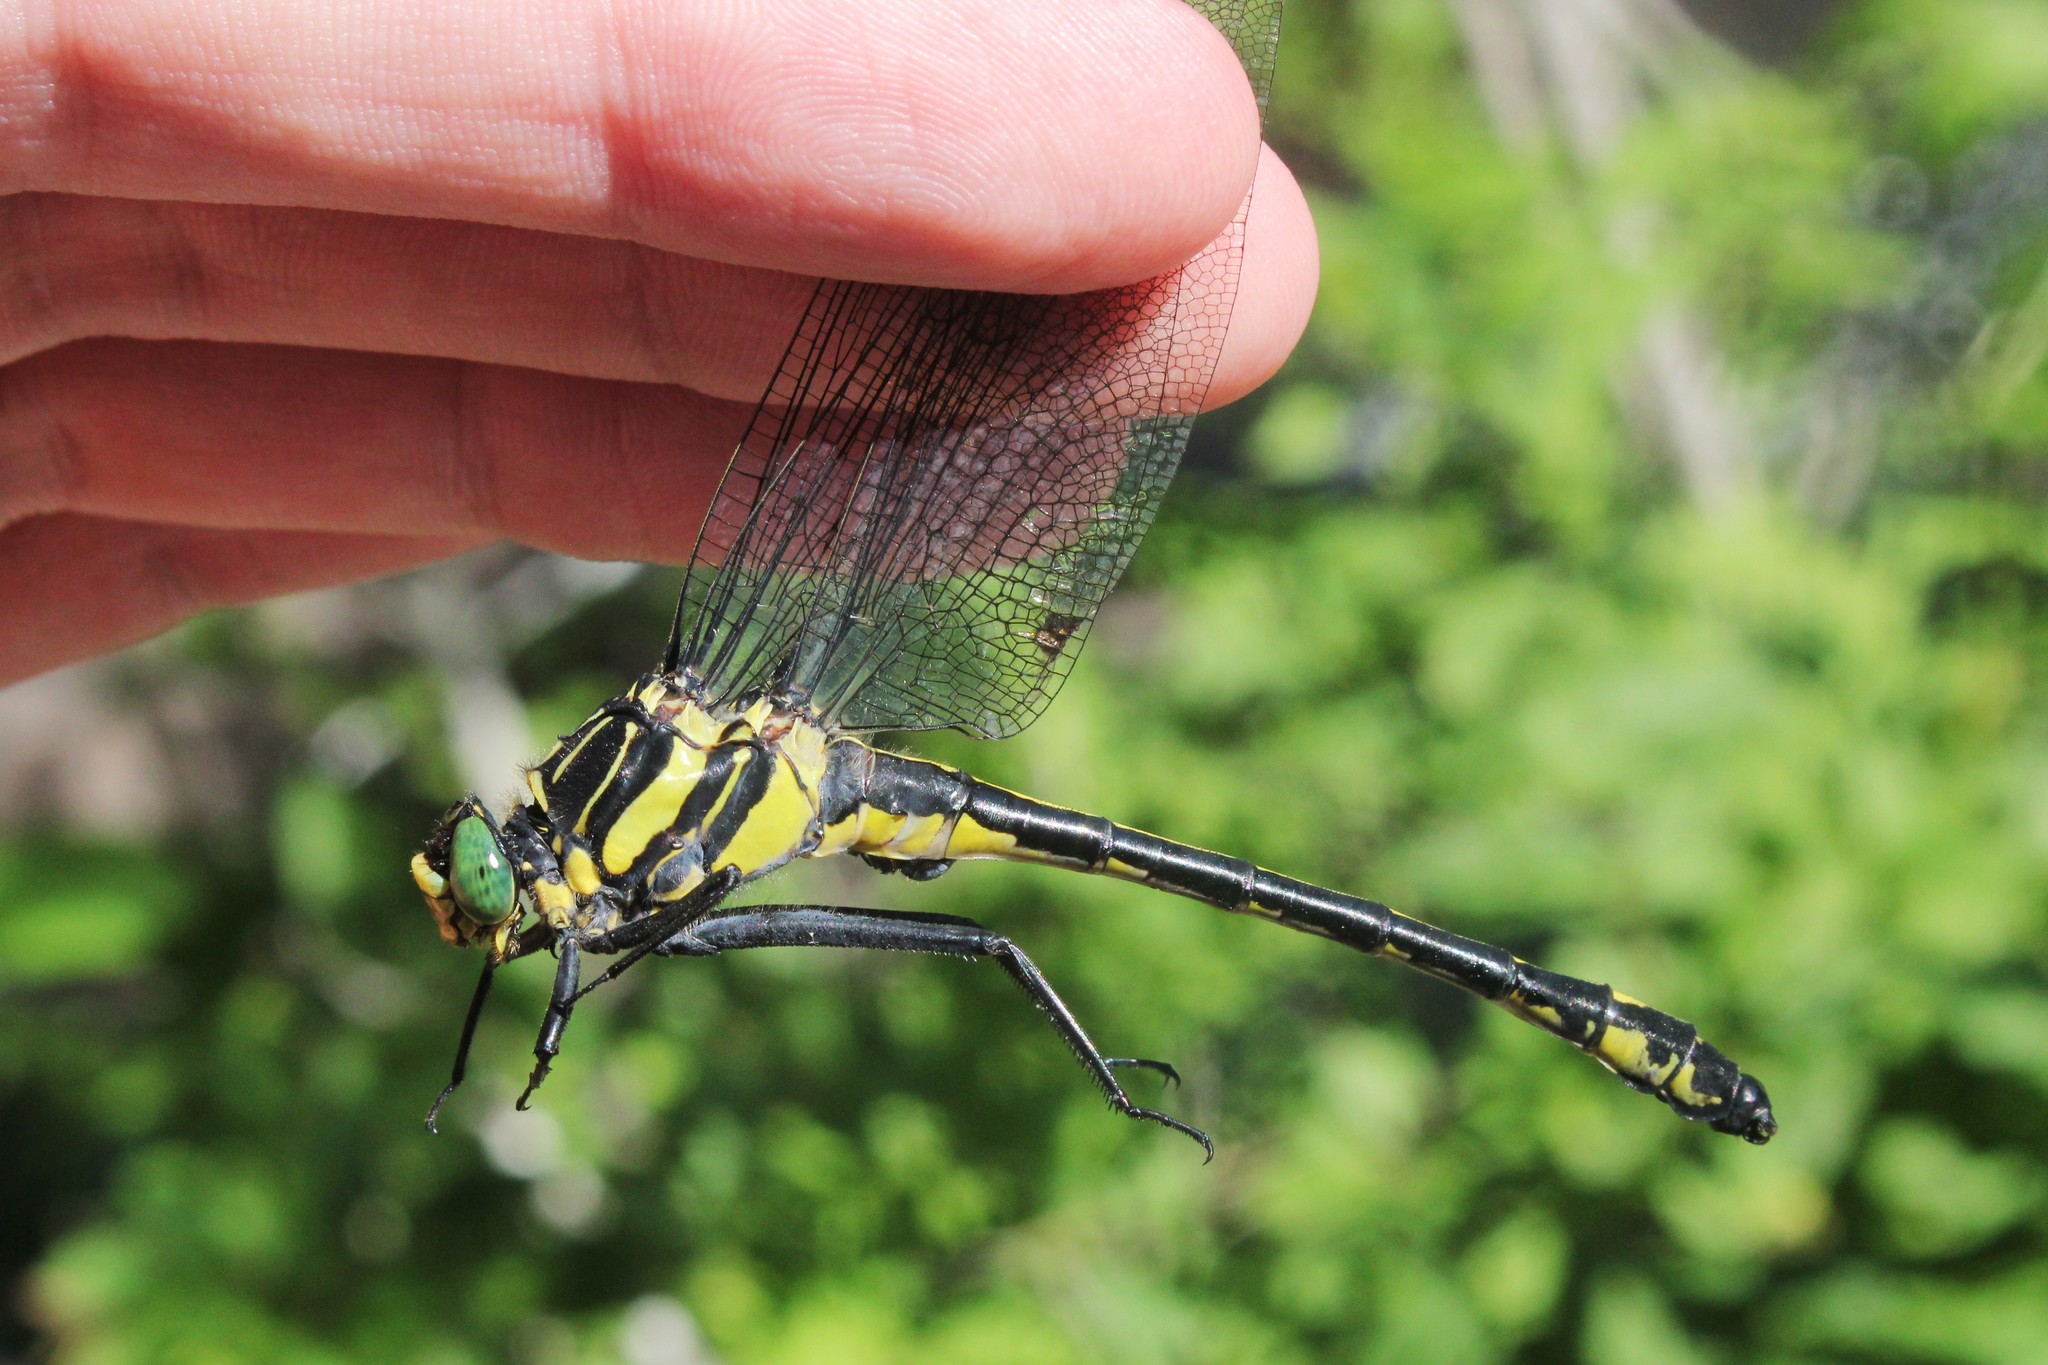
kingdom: Animalia
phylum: Arthropoda
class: Insecta
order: Odonata
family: Gomphidae
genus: Hagenius
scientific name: Hagenius brevistylus
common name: Dragonhunter
